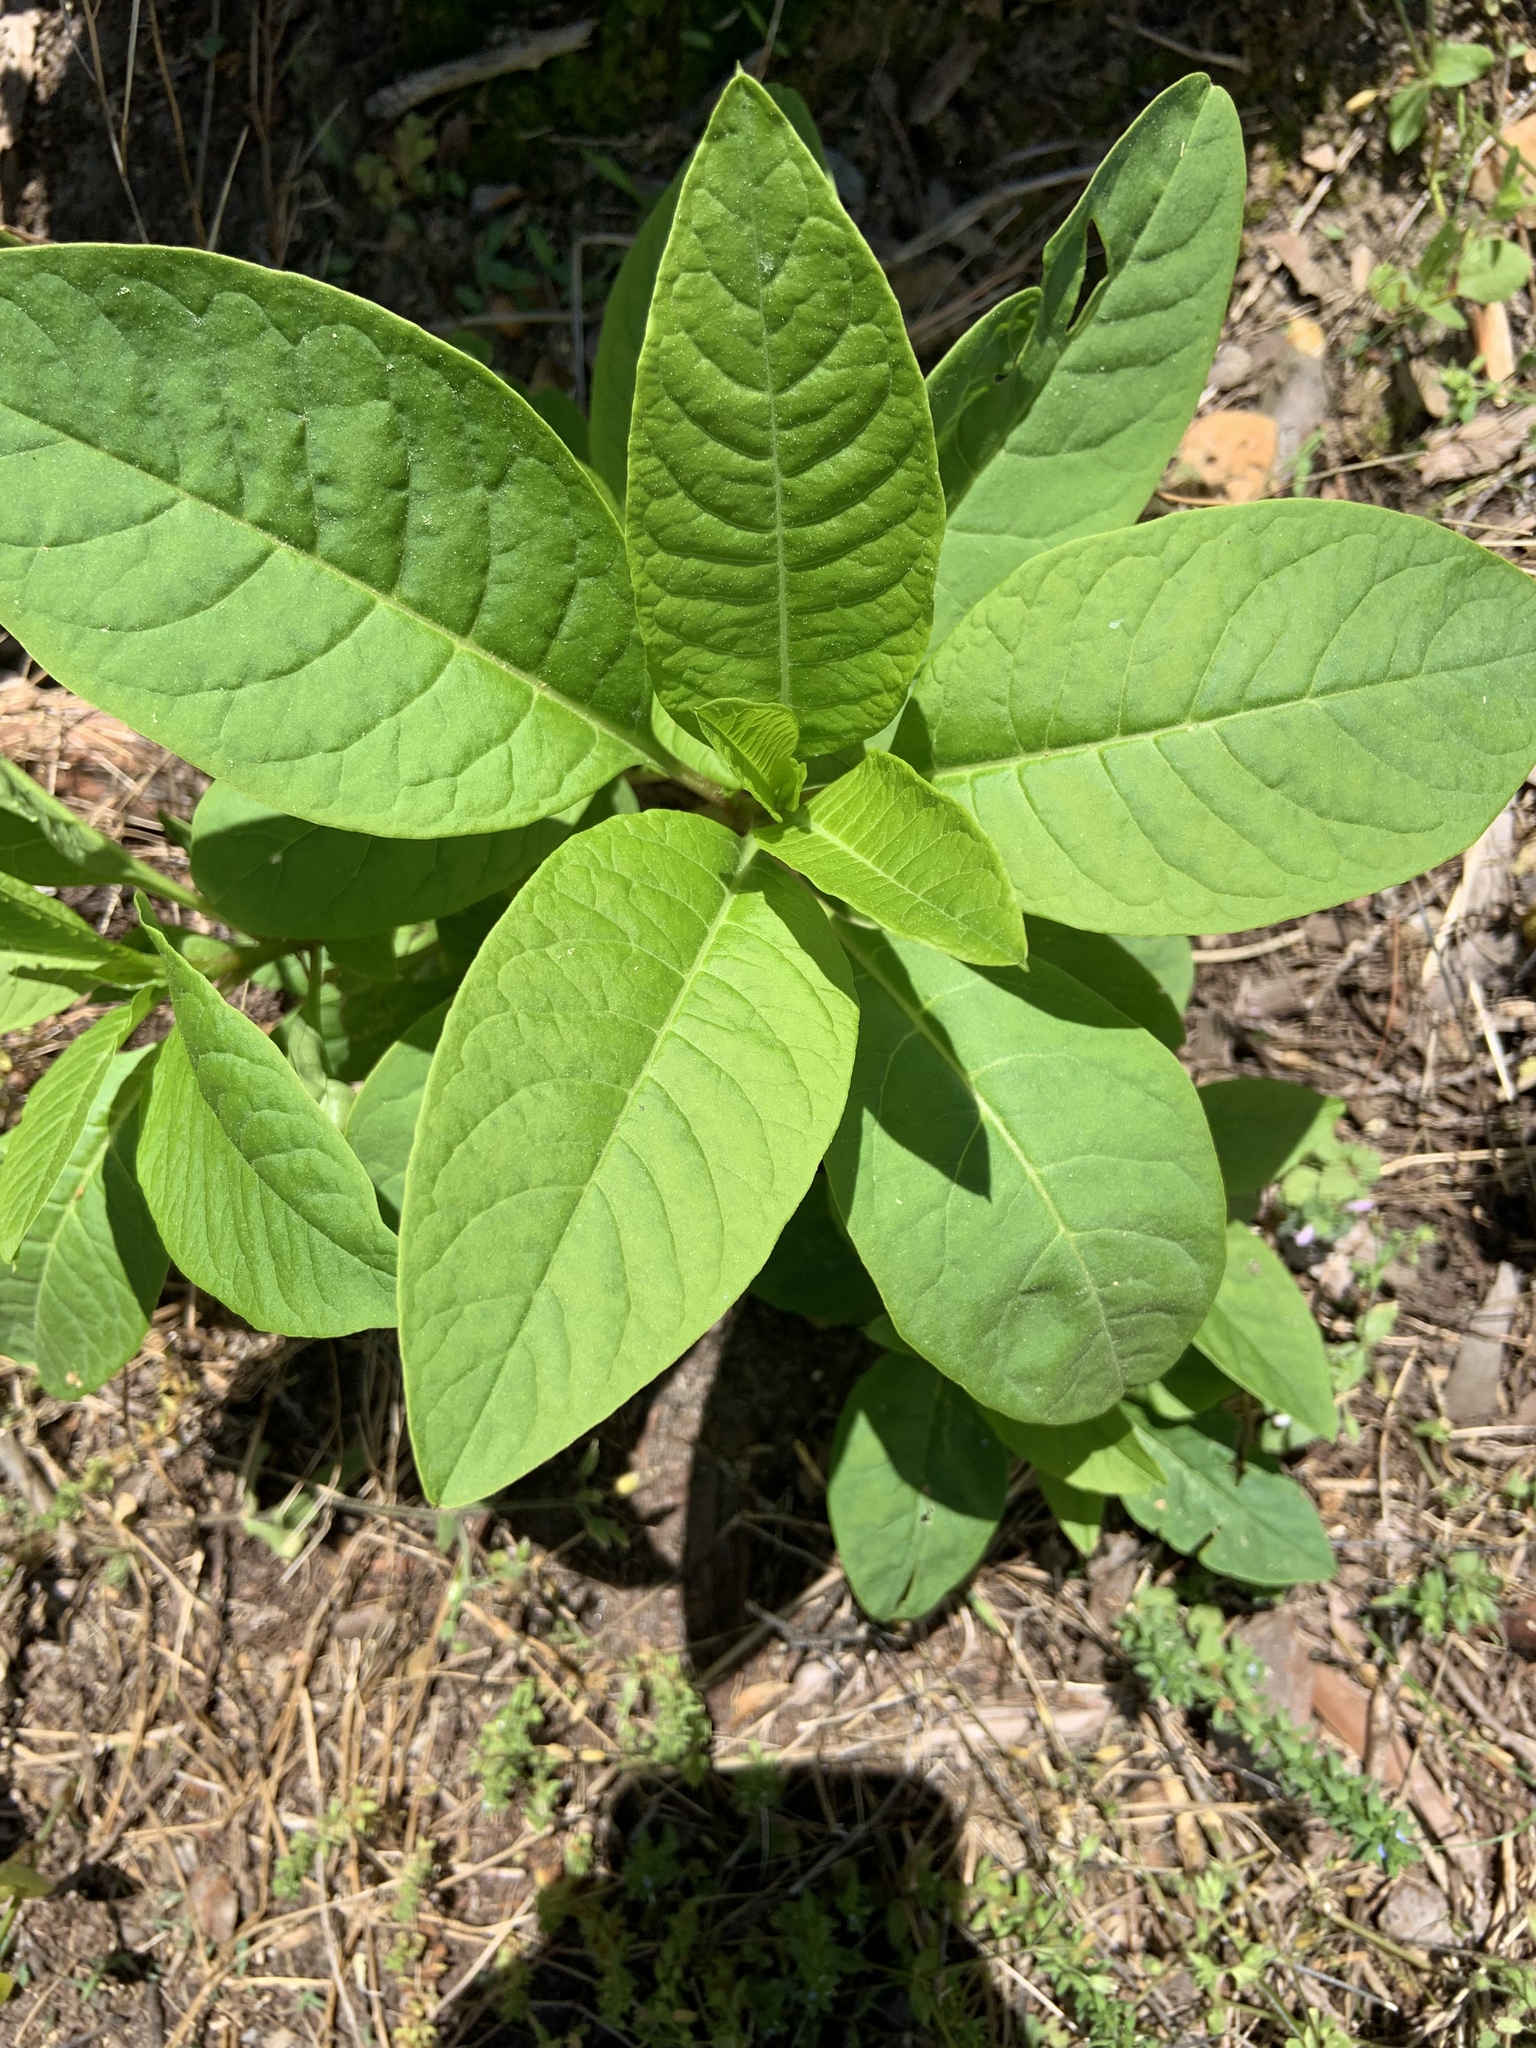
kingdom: Plantae
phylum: Tracheophyta
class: Magnoliopsida
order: Caryophyllales
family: Phytolaccaceae
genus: Phytolacca
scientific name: Phytolacca americana
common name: American pokeweed
